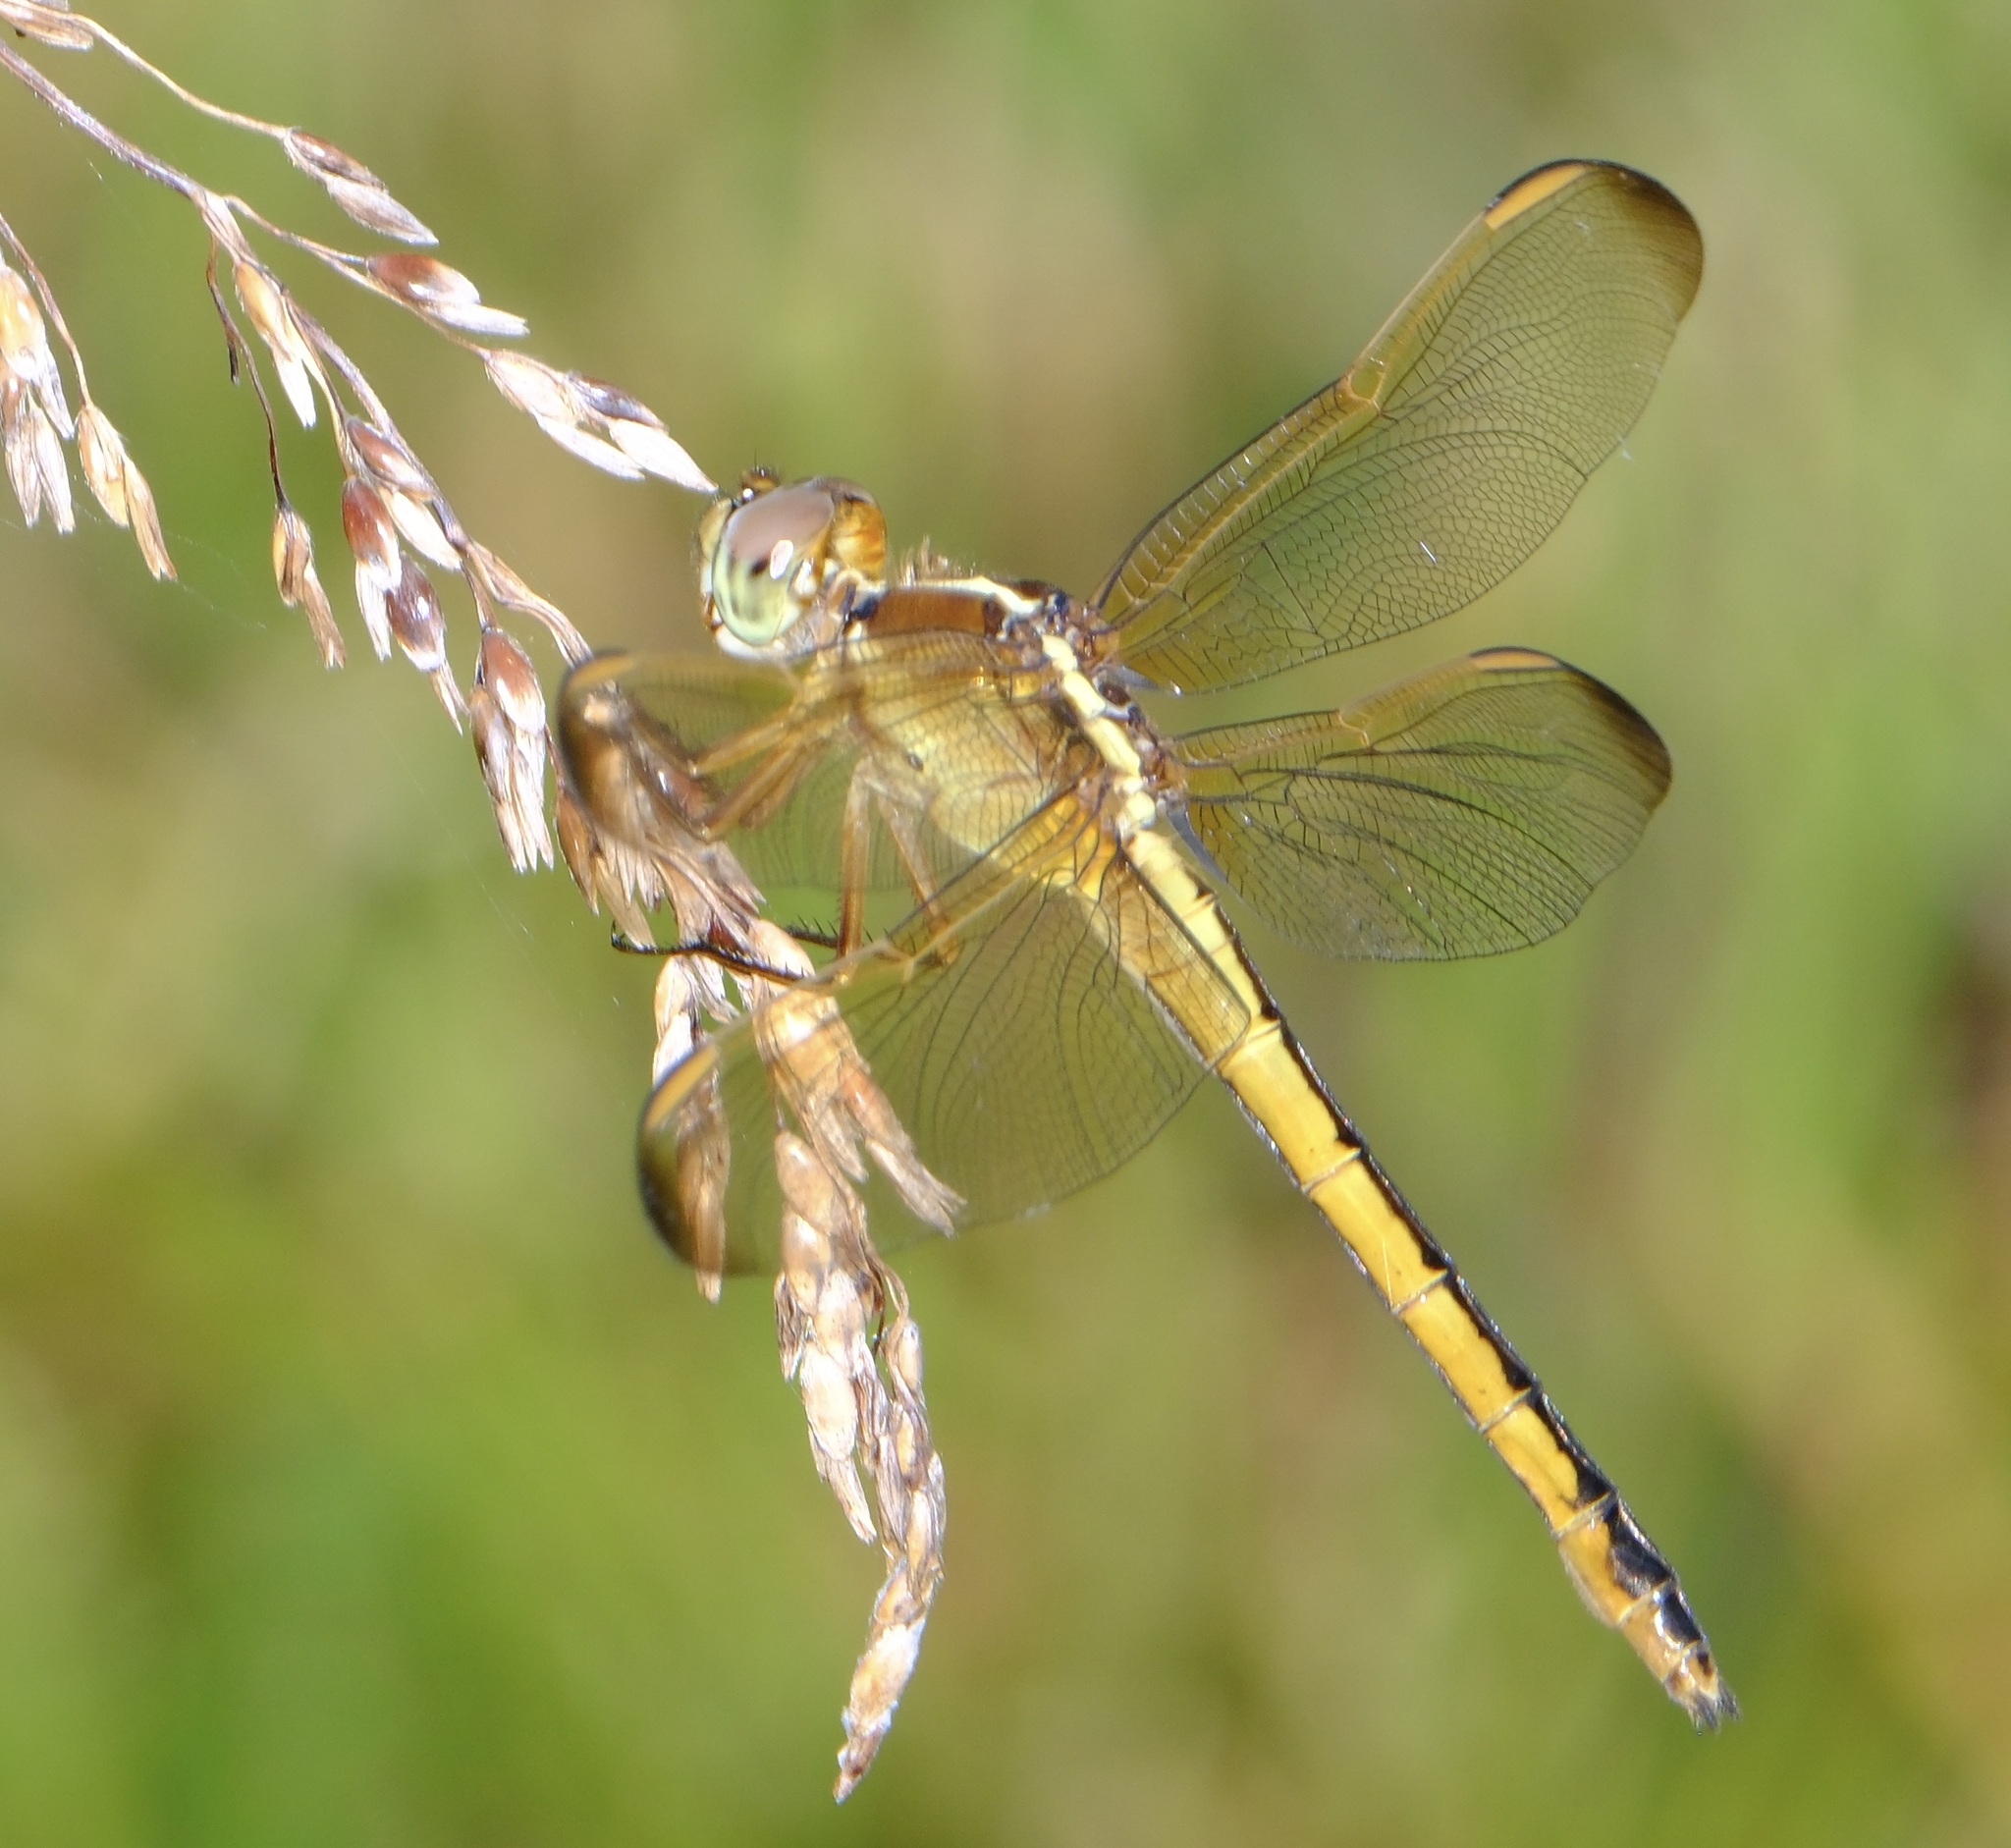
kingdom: Animalia
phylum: Arthropoda
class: Insecta
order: Odonata
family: Libellulidae
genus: Libellula
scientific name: Libellula needhami
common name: Needham's skimmer
